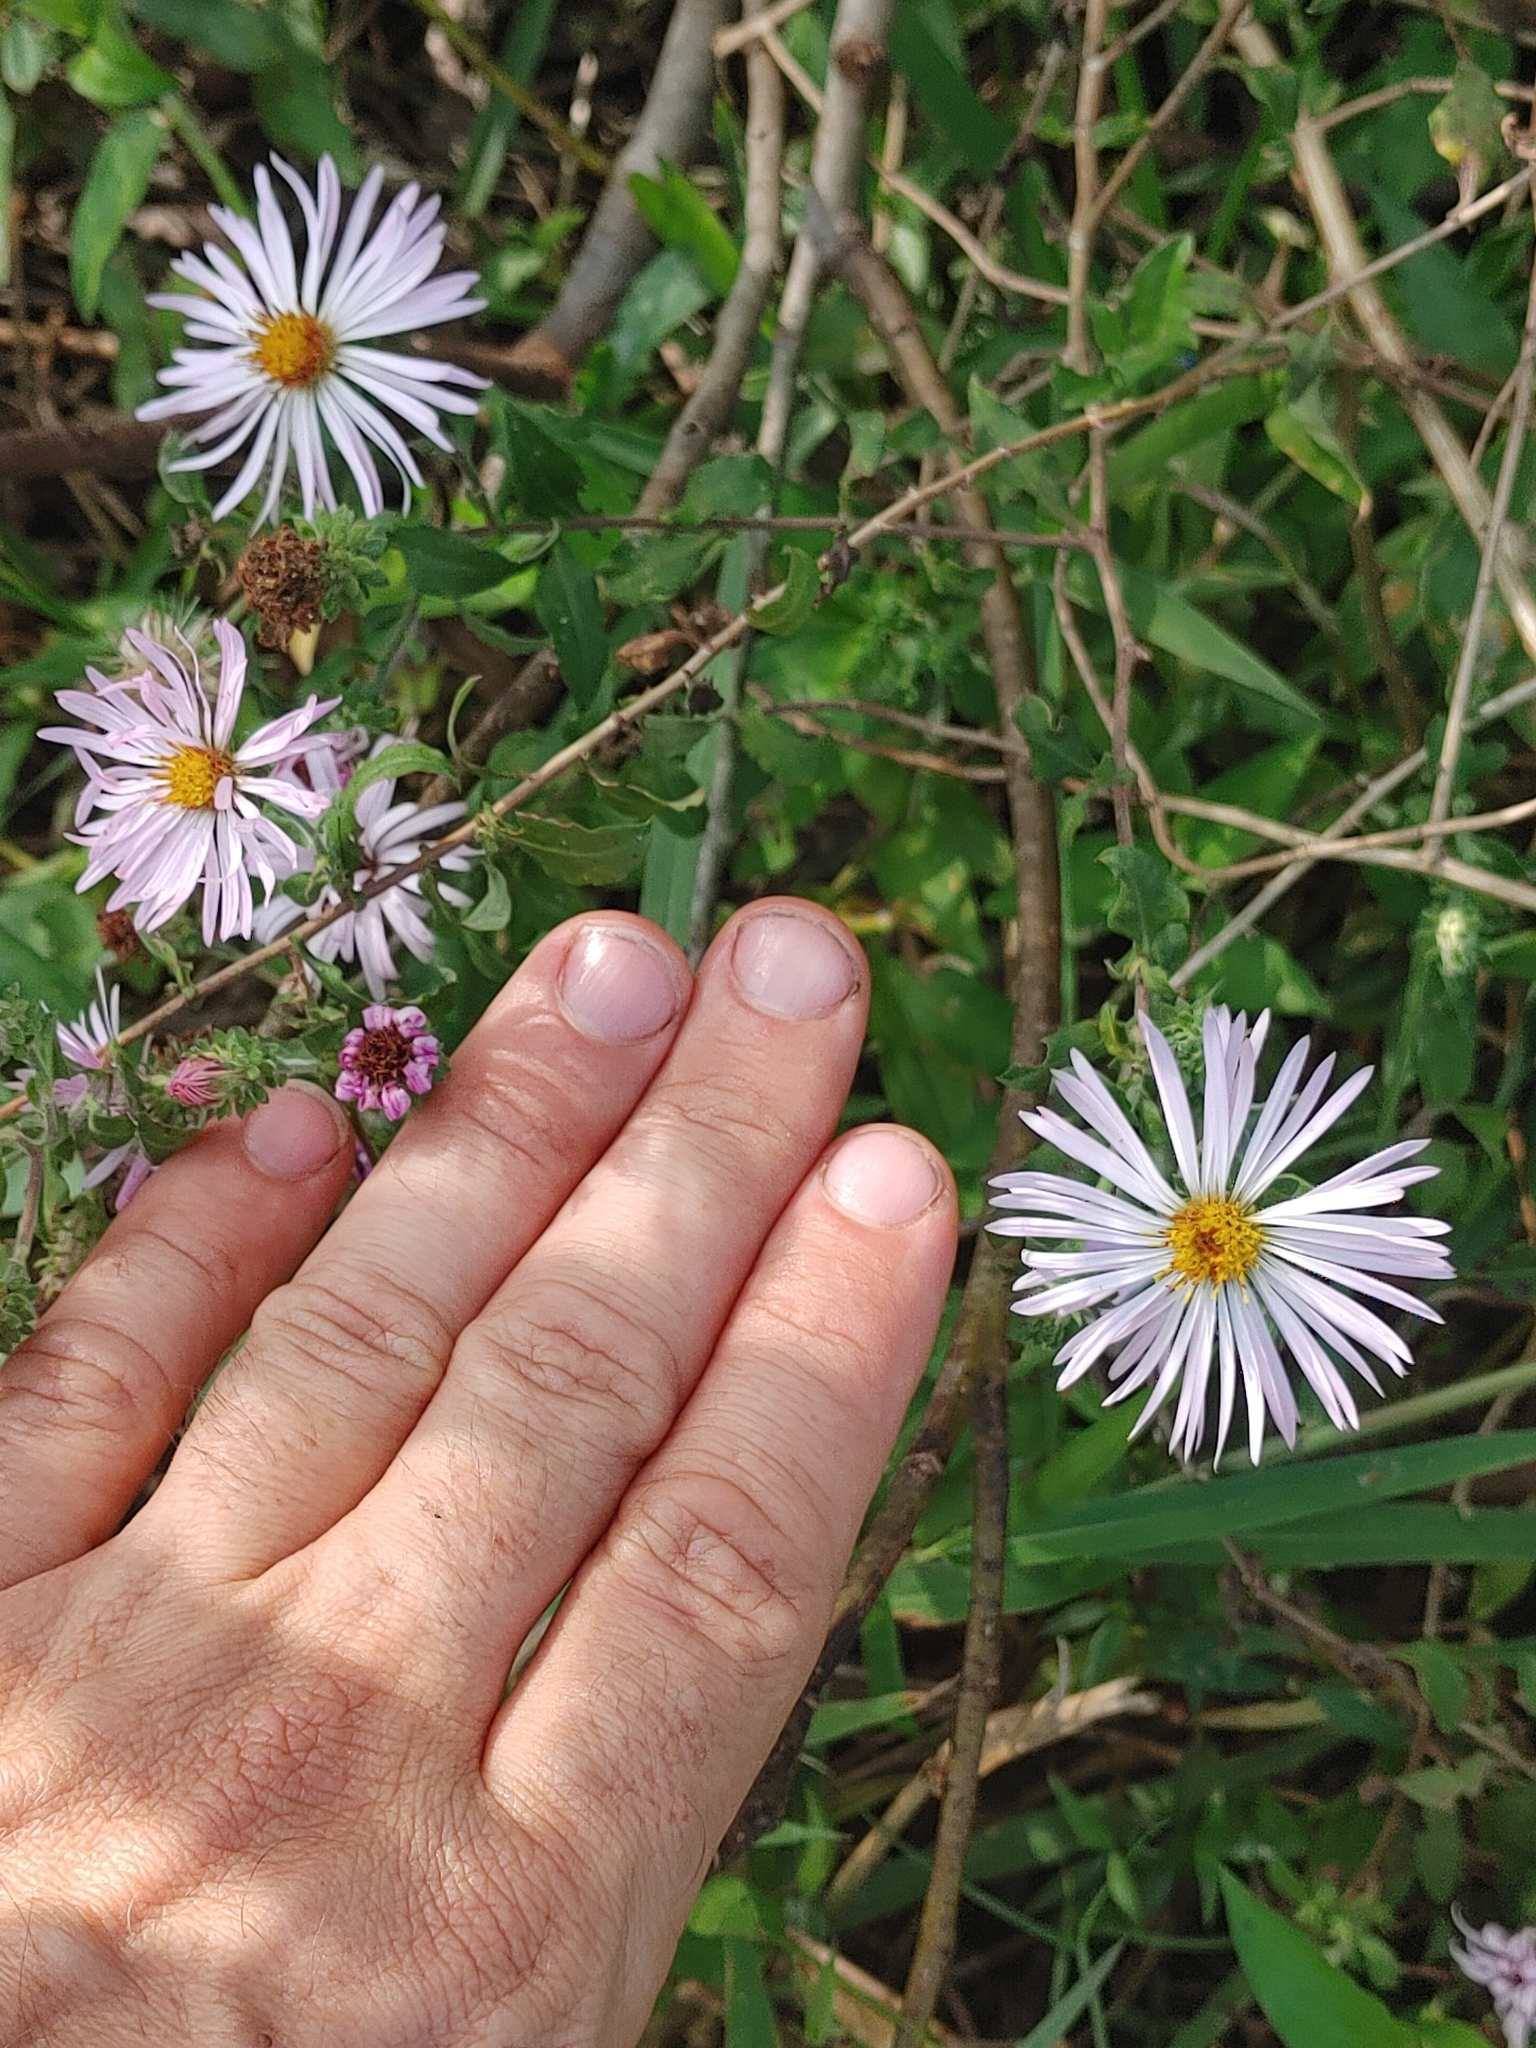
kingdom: Plantae
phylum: Tracheophyta
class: Magnoliopsida
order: Asterales
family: Asteraceae
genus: Ampelaster
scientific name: Ampelaster carolinianus
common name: Climbing aster
